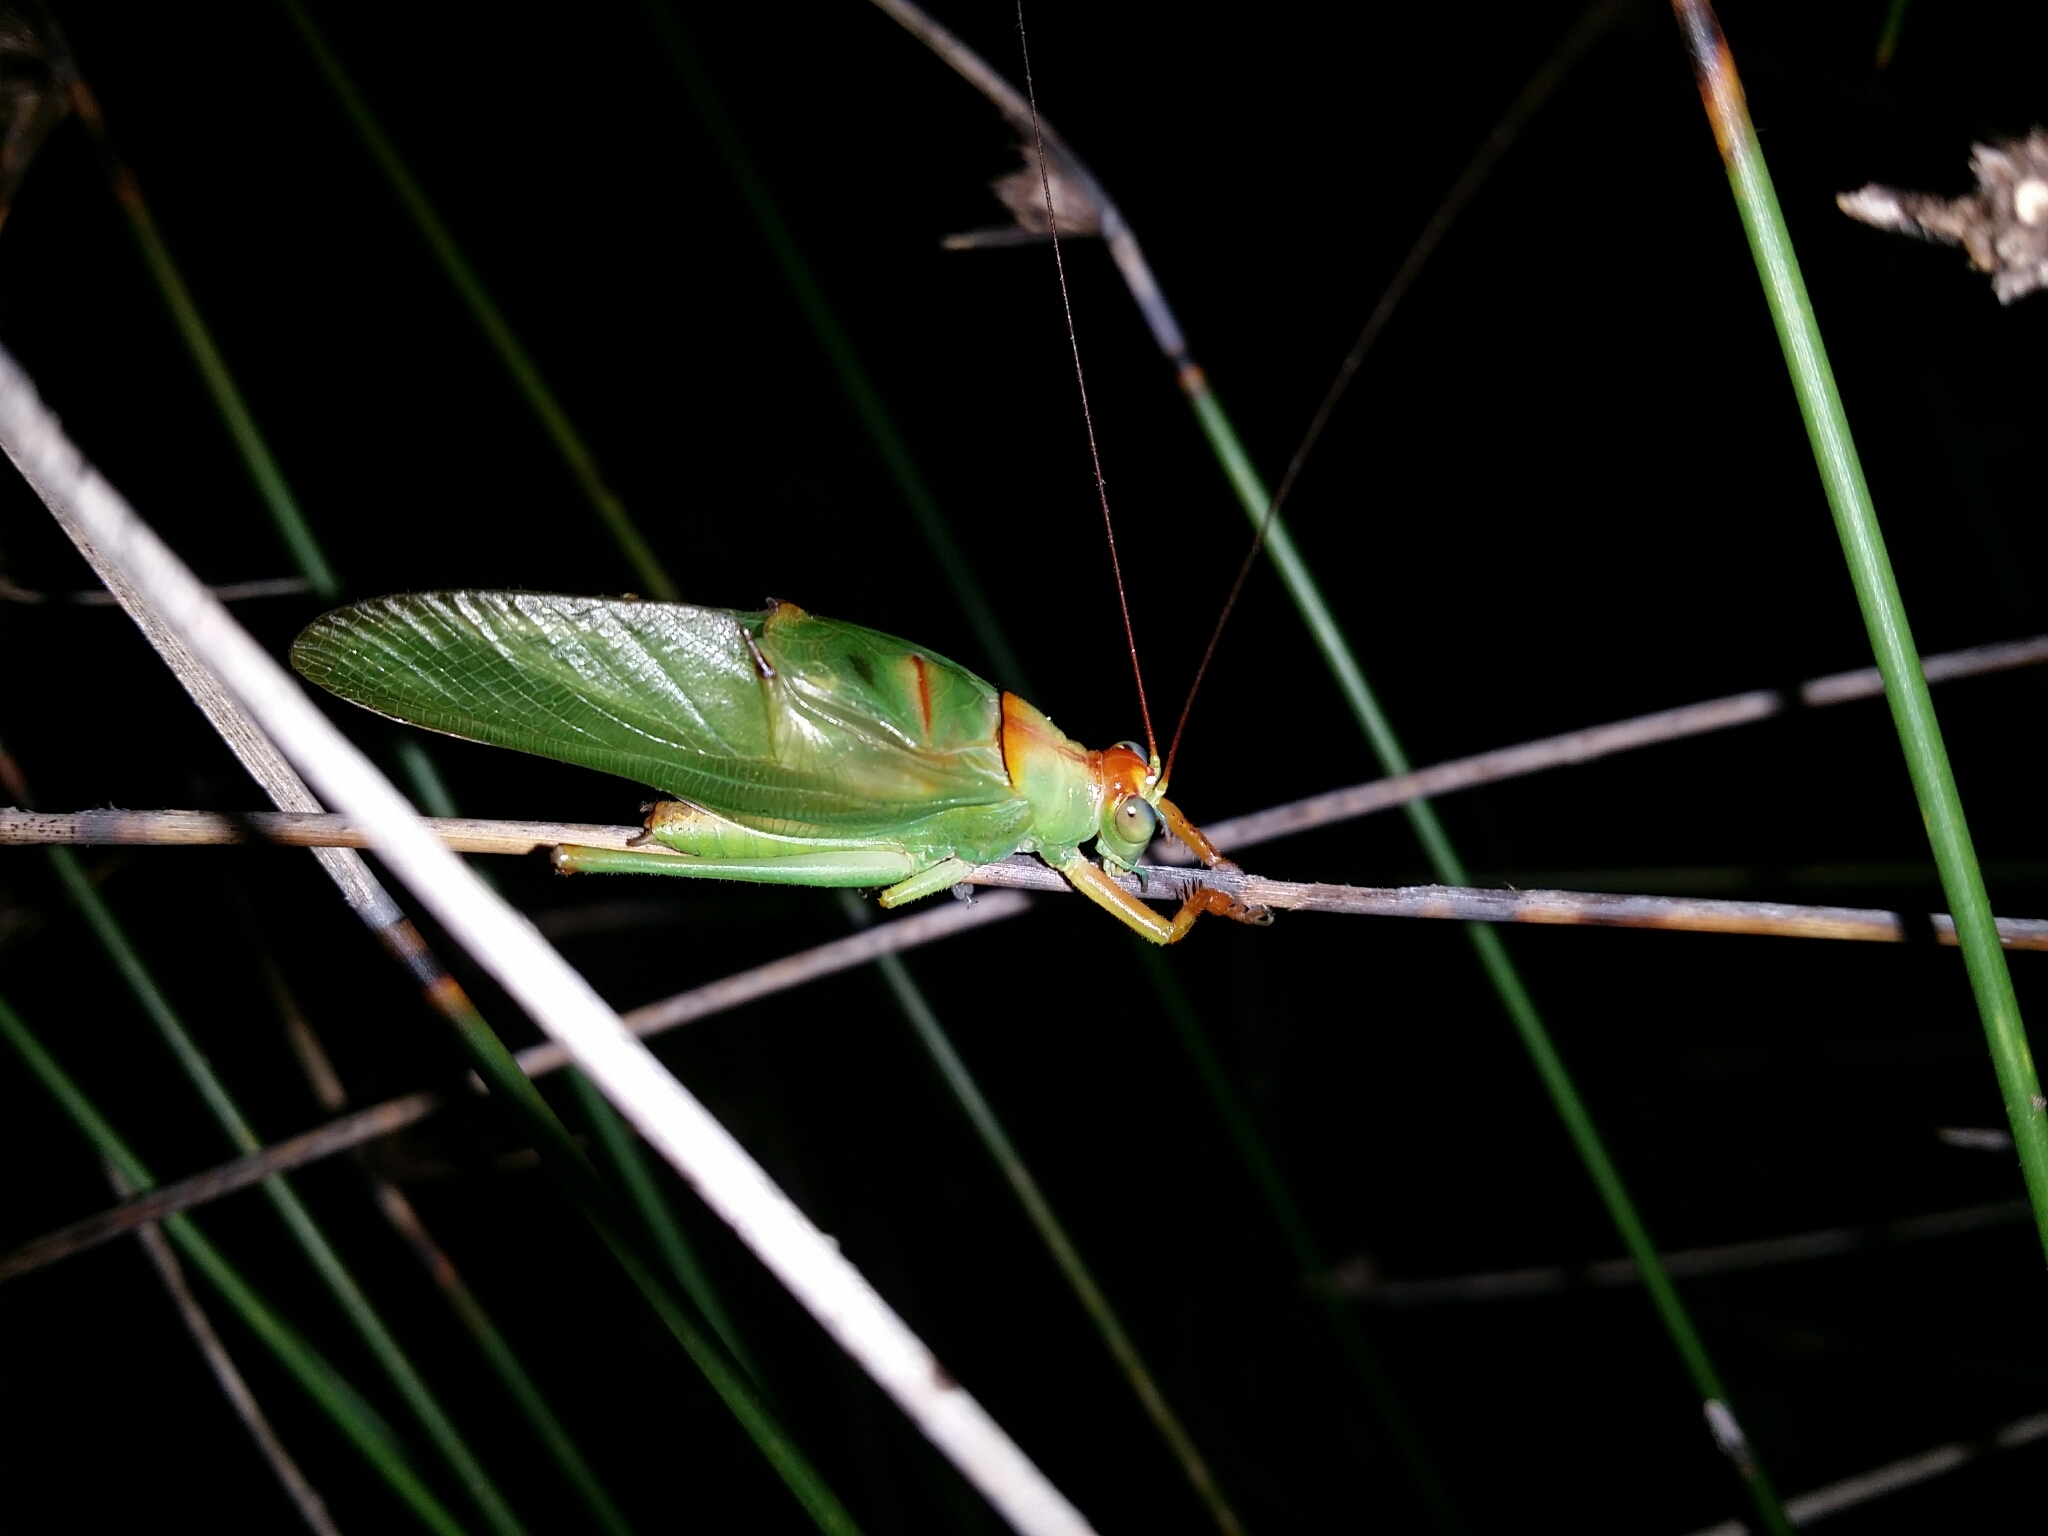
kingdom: Animalia
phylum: Arthropoda
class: Insecta
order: Orthoptera
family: Tettigoniidae
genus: Tympanophora
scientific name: Tympanophora andreae
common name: Andrea's balloon-winged katydid
